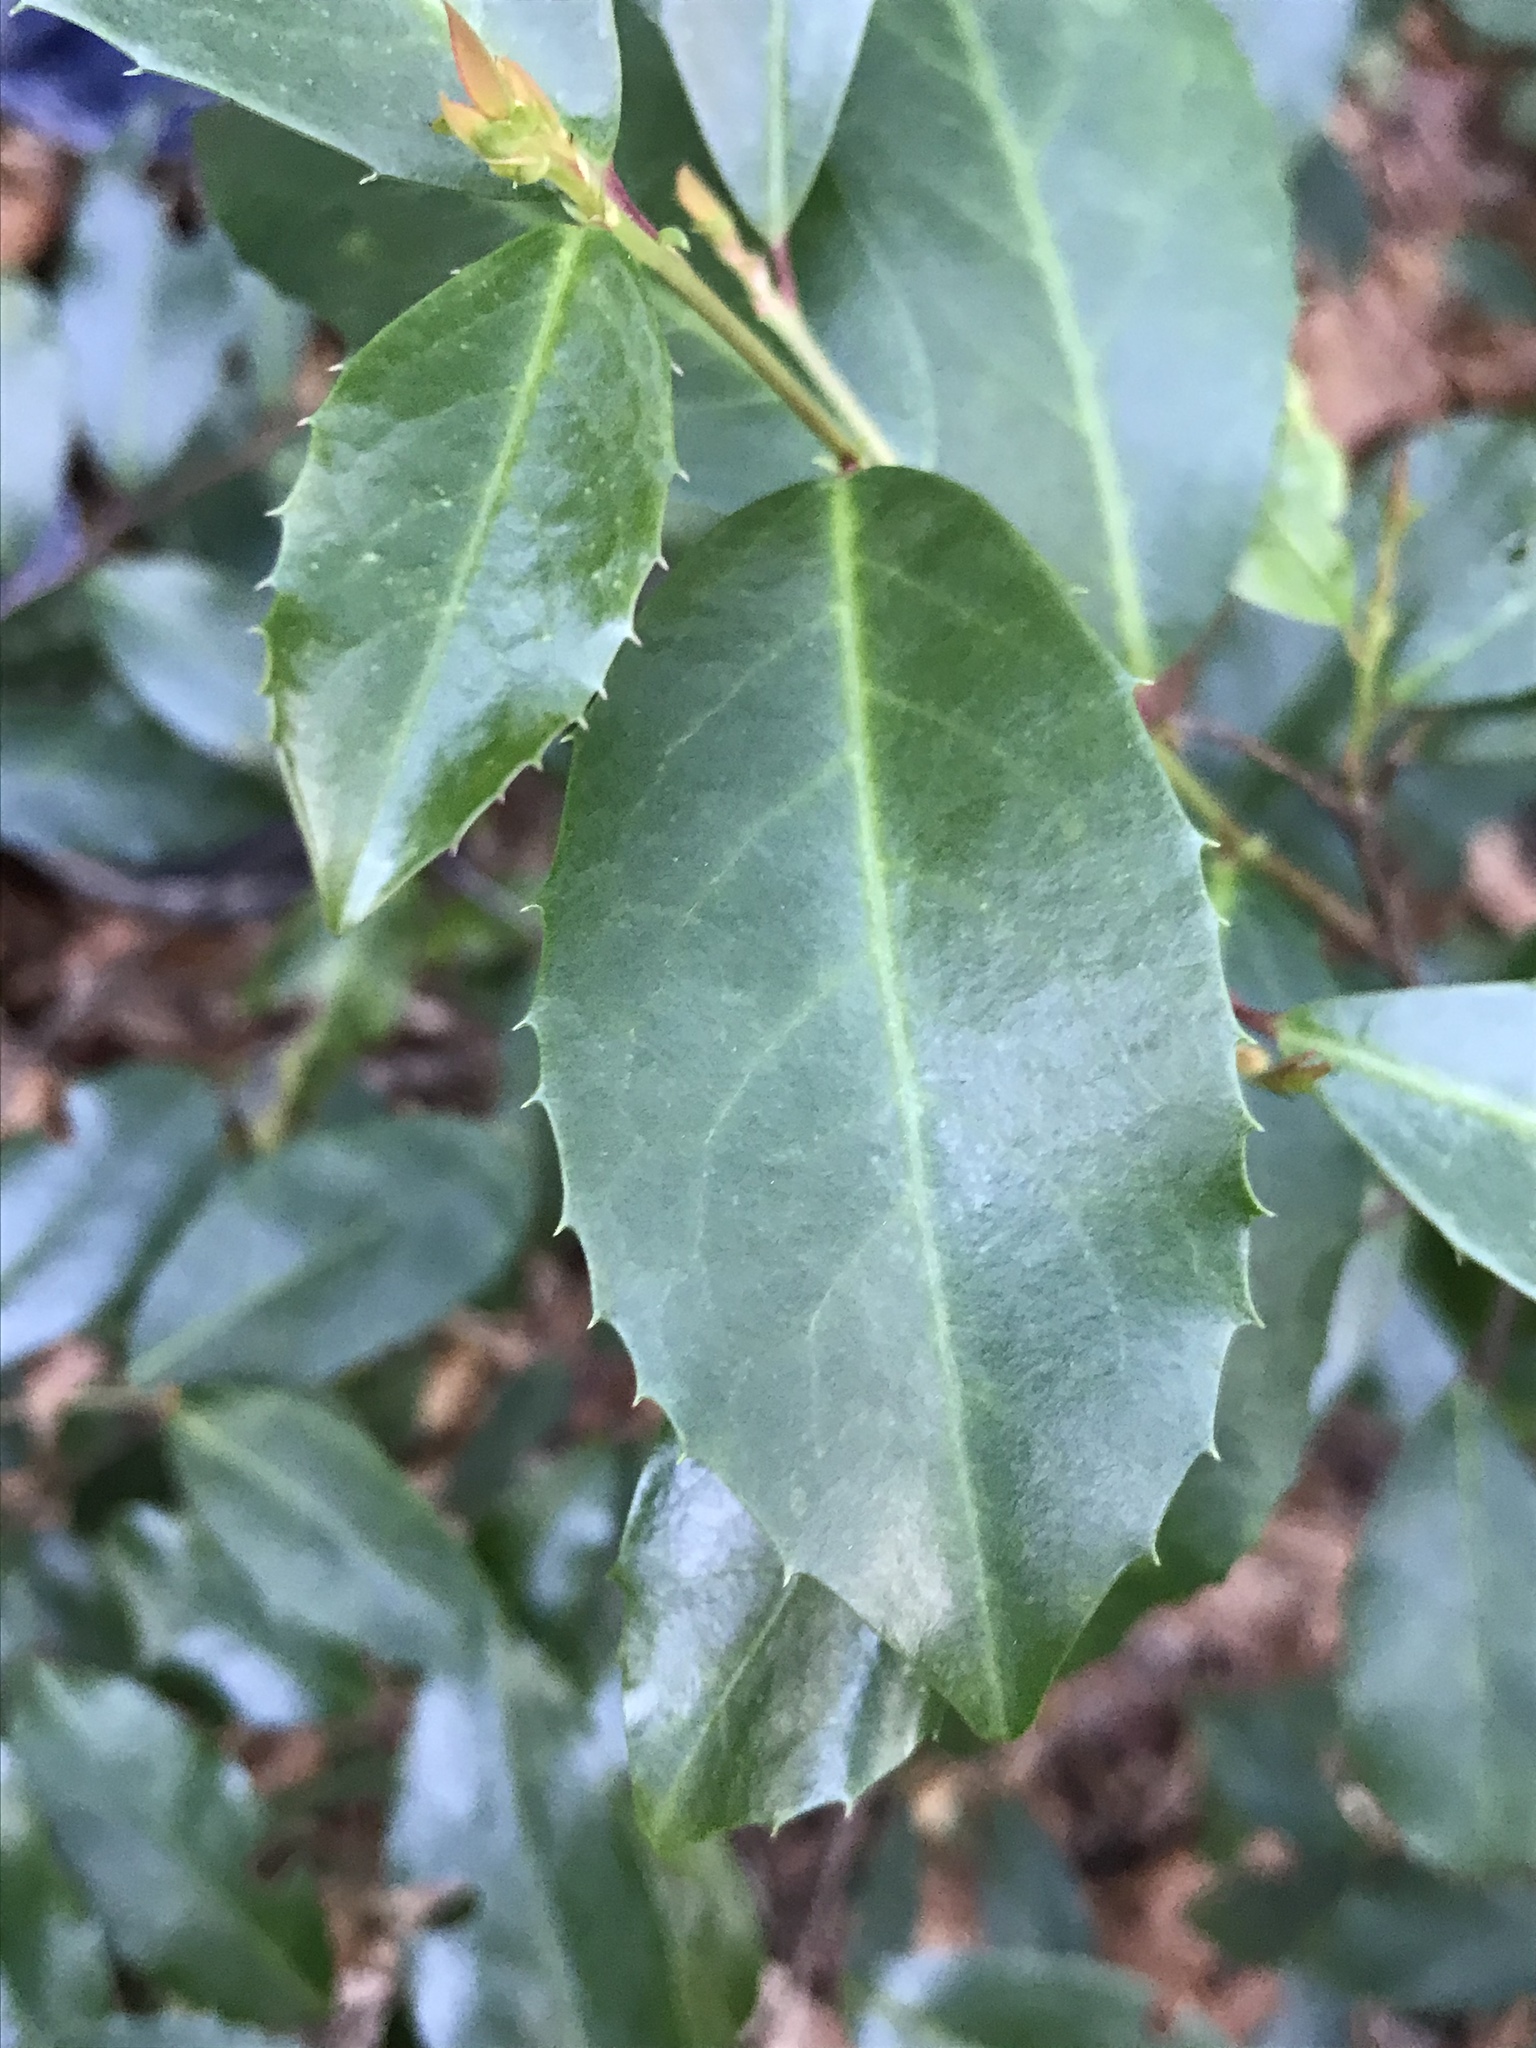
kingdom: Plantae
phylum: Tracheophyta
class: Magnoliopsida
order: Rosales
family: Rosaceae
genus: Prunus
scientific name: Prunus caroliniana
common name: Carolina laurel cherry
